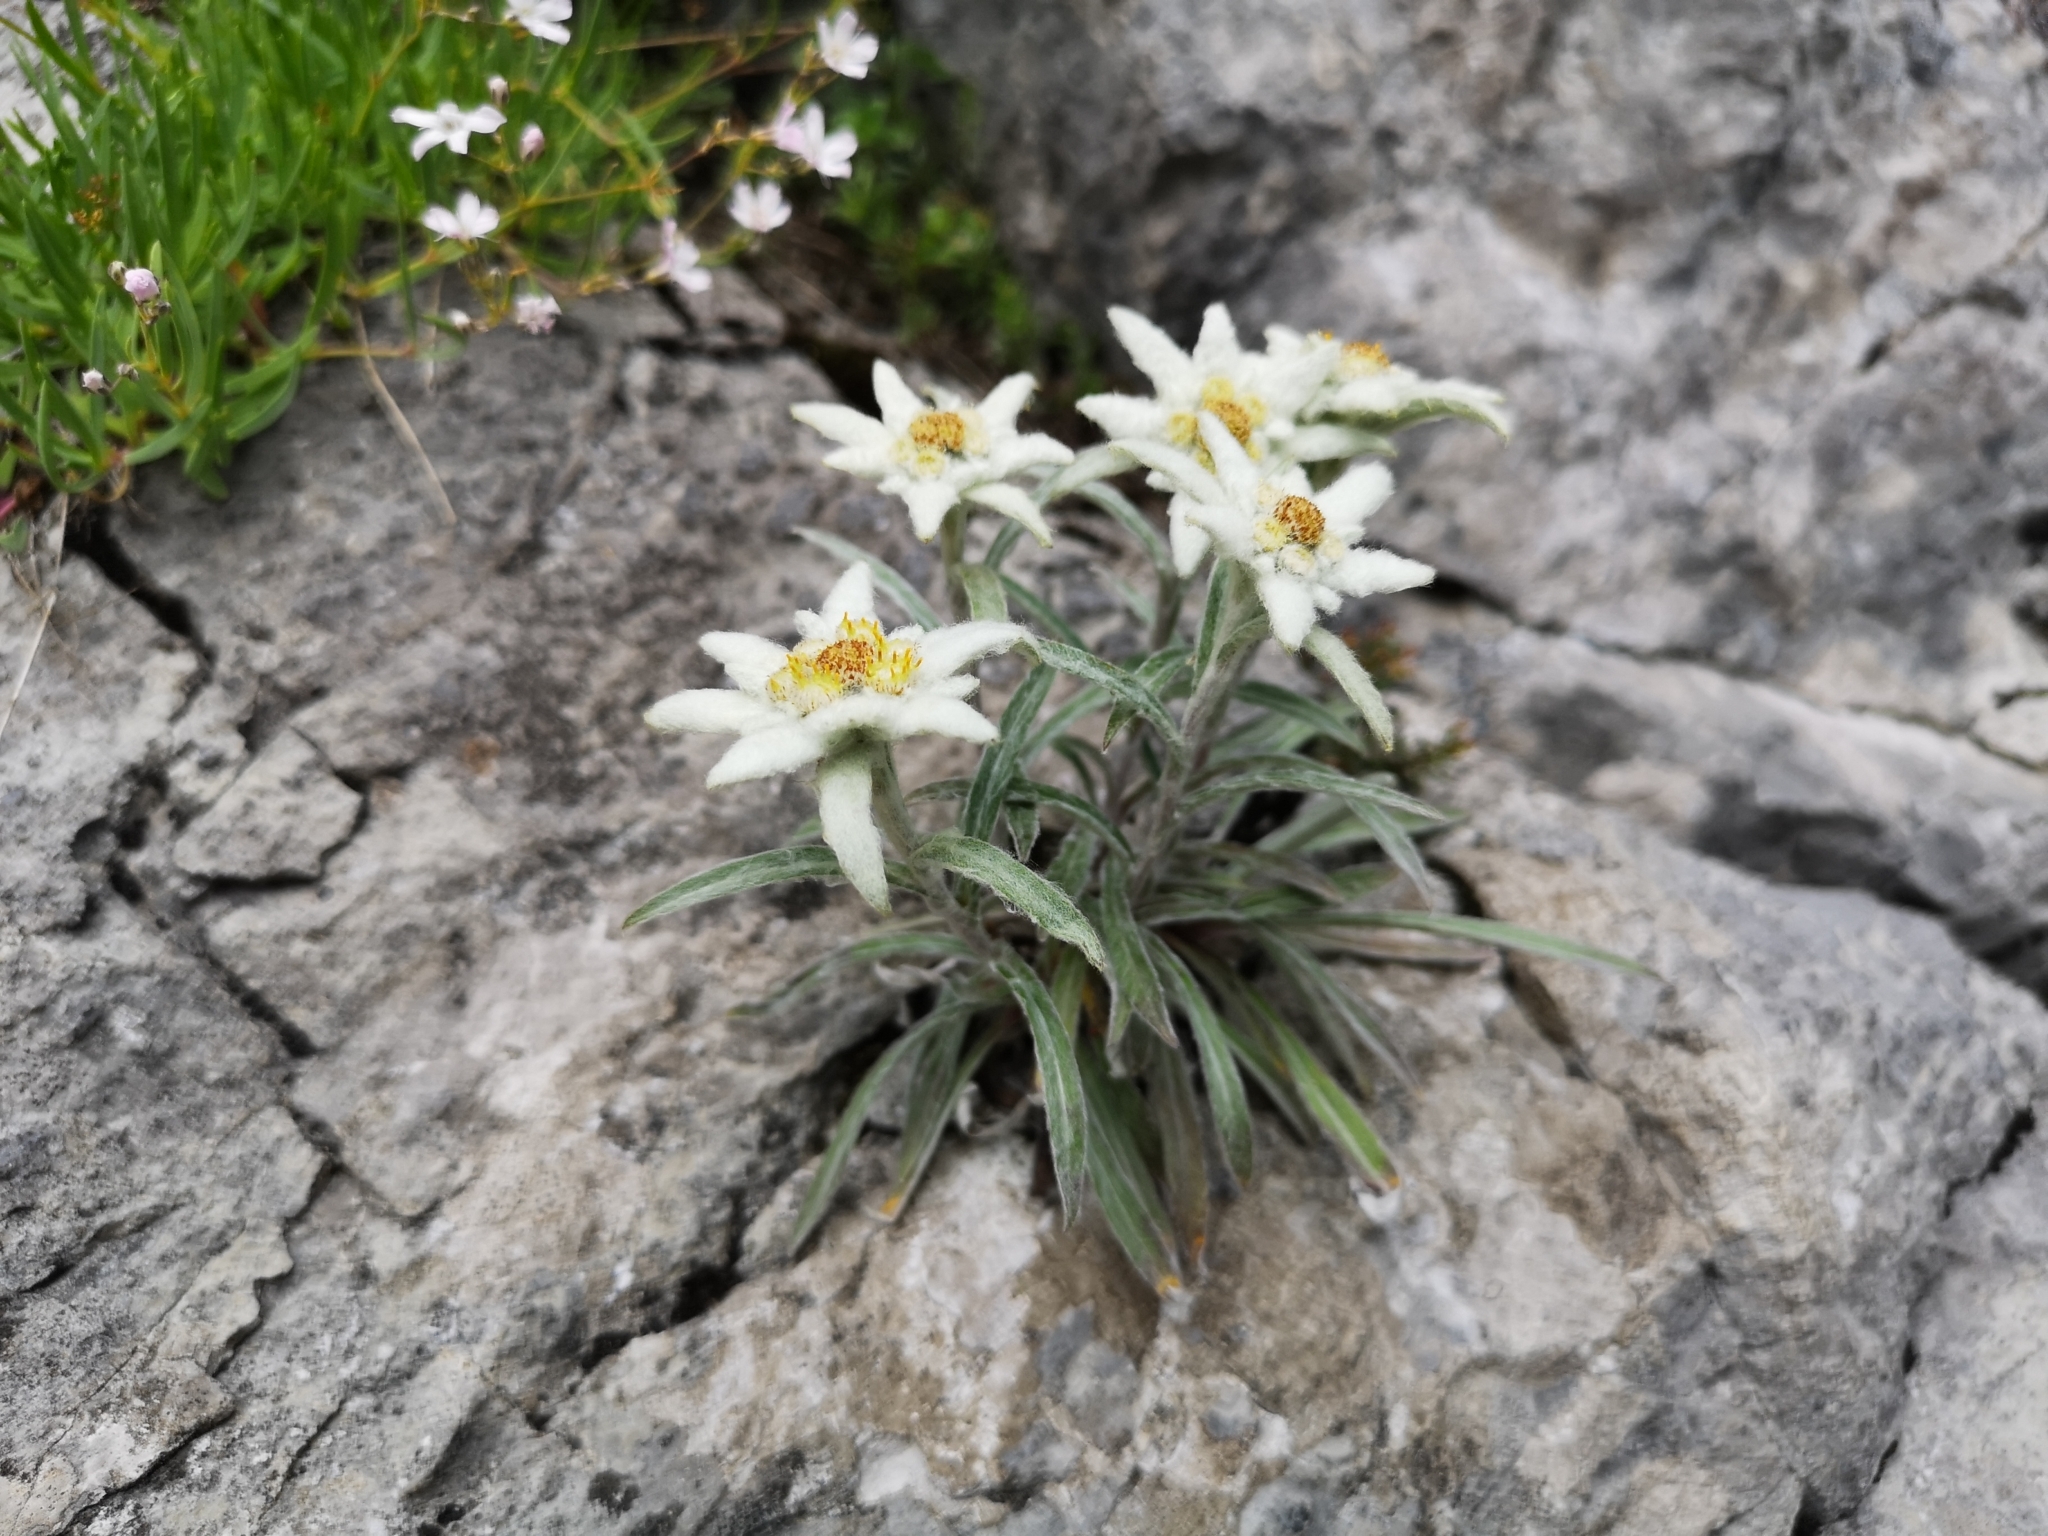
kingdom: Plantae
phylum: Tracheophyta
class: Magnoliopsida
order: Asterales
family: Asteraceae
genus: Leontopodium
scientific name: Leontopodium nivale
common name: Edelweiss
